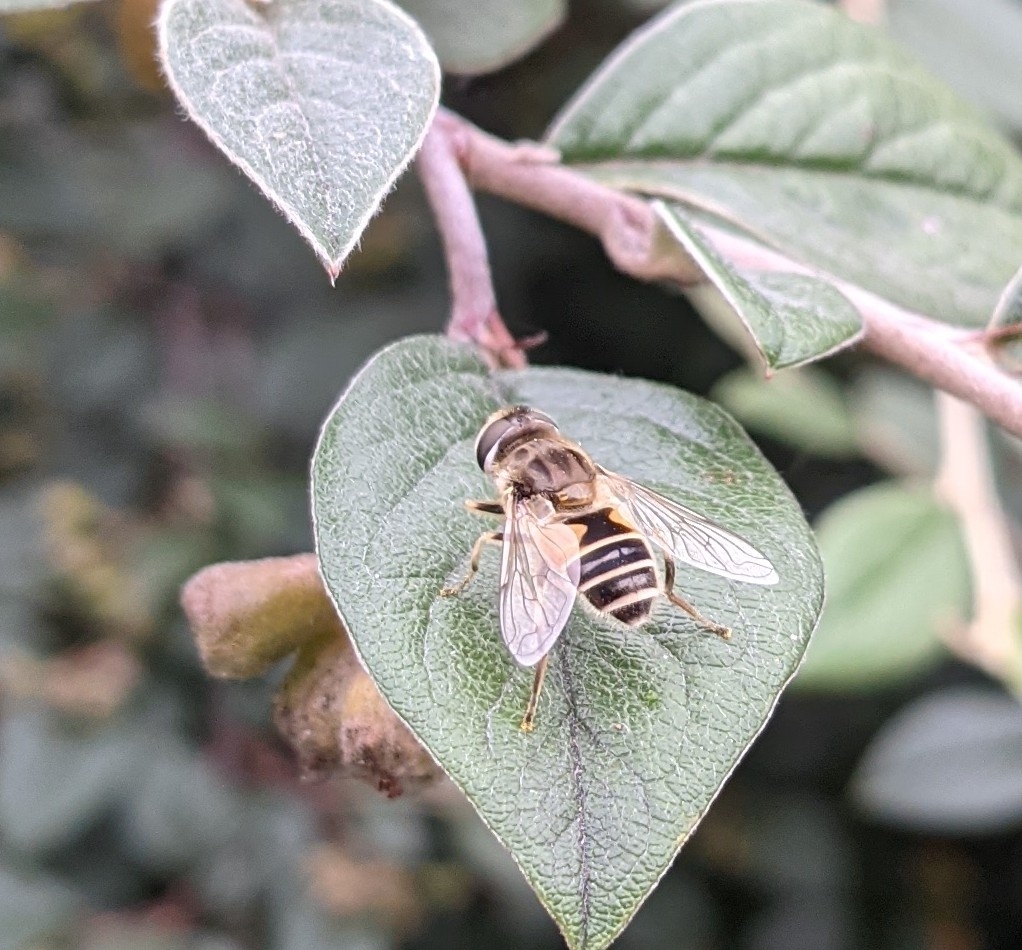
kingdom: Animalia
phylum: Arthropoda
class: Insecta
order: Diptera
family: Syrphidae
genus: Eristalis
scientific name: Eristalis arbustorum
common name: Hover fly
